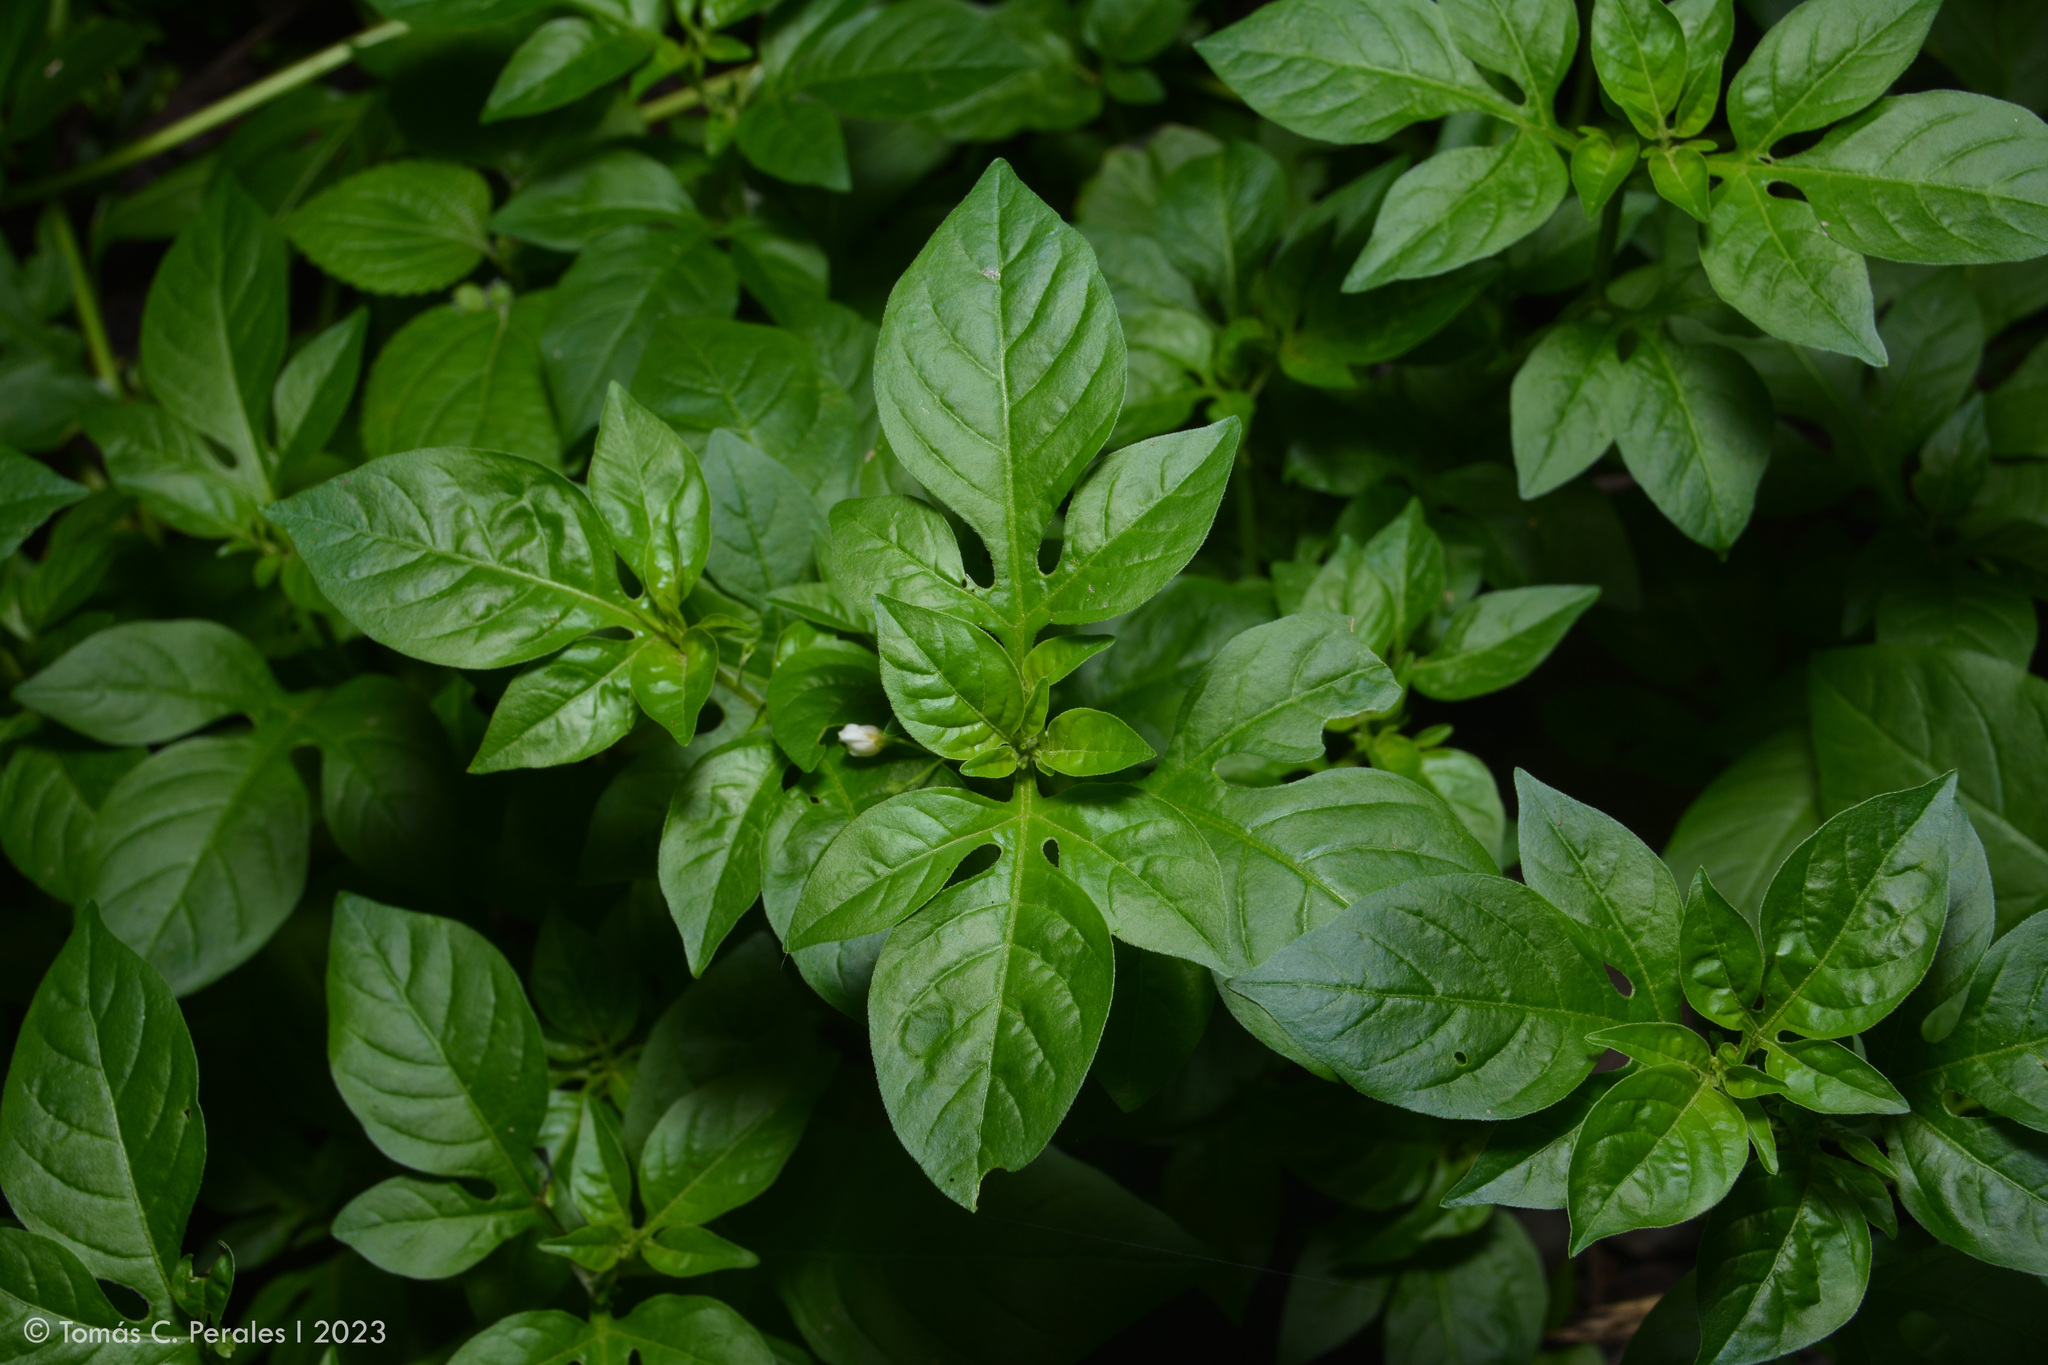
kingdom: Plantae
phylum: Tracheophyta
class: Magnoliopsida
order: Solanales
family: Solanaceae
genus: Solanum
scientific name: Solanum palitans
